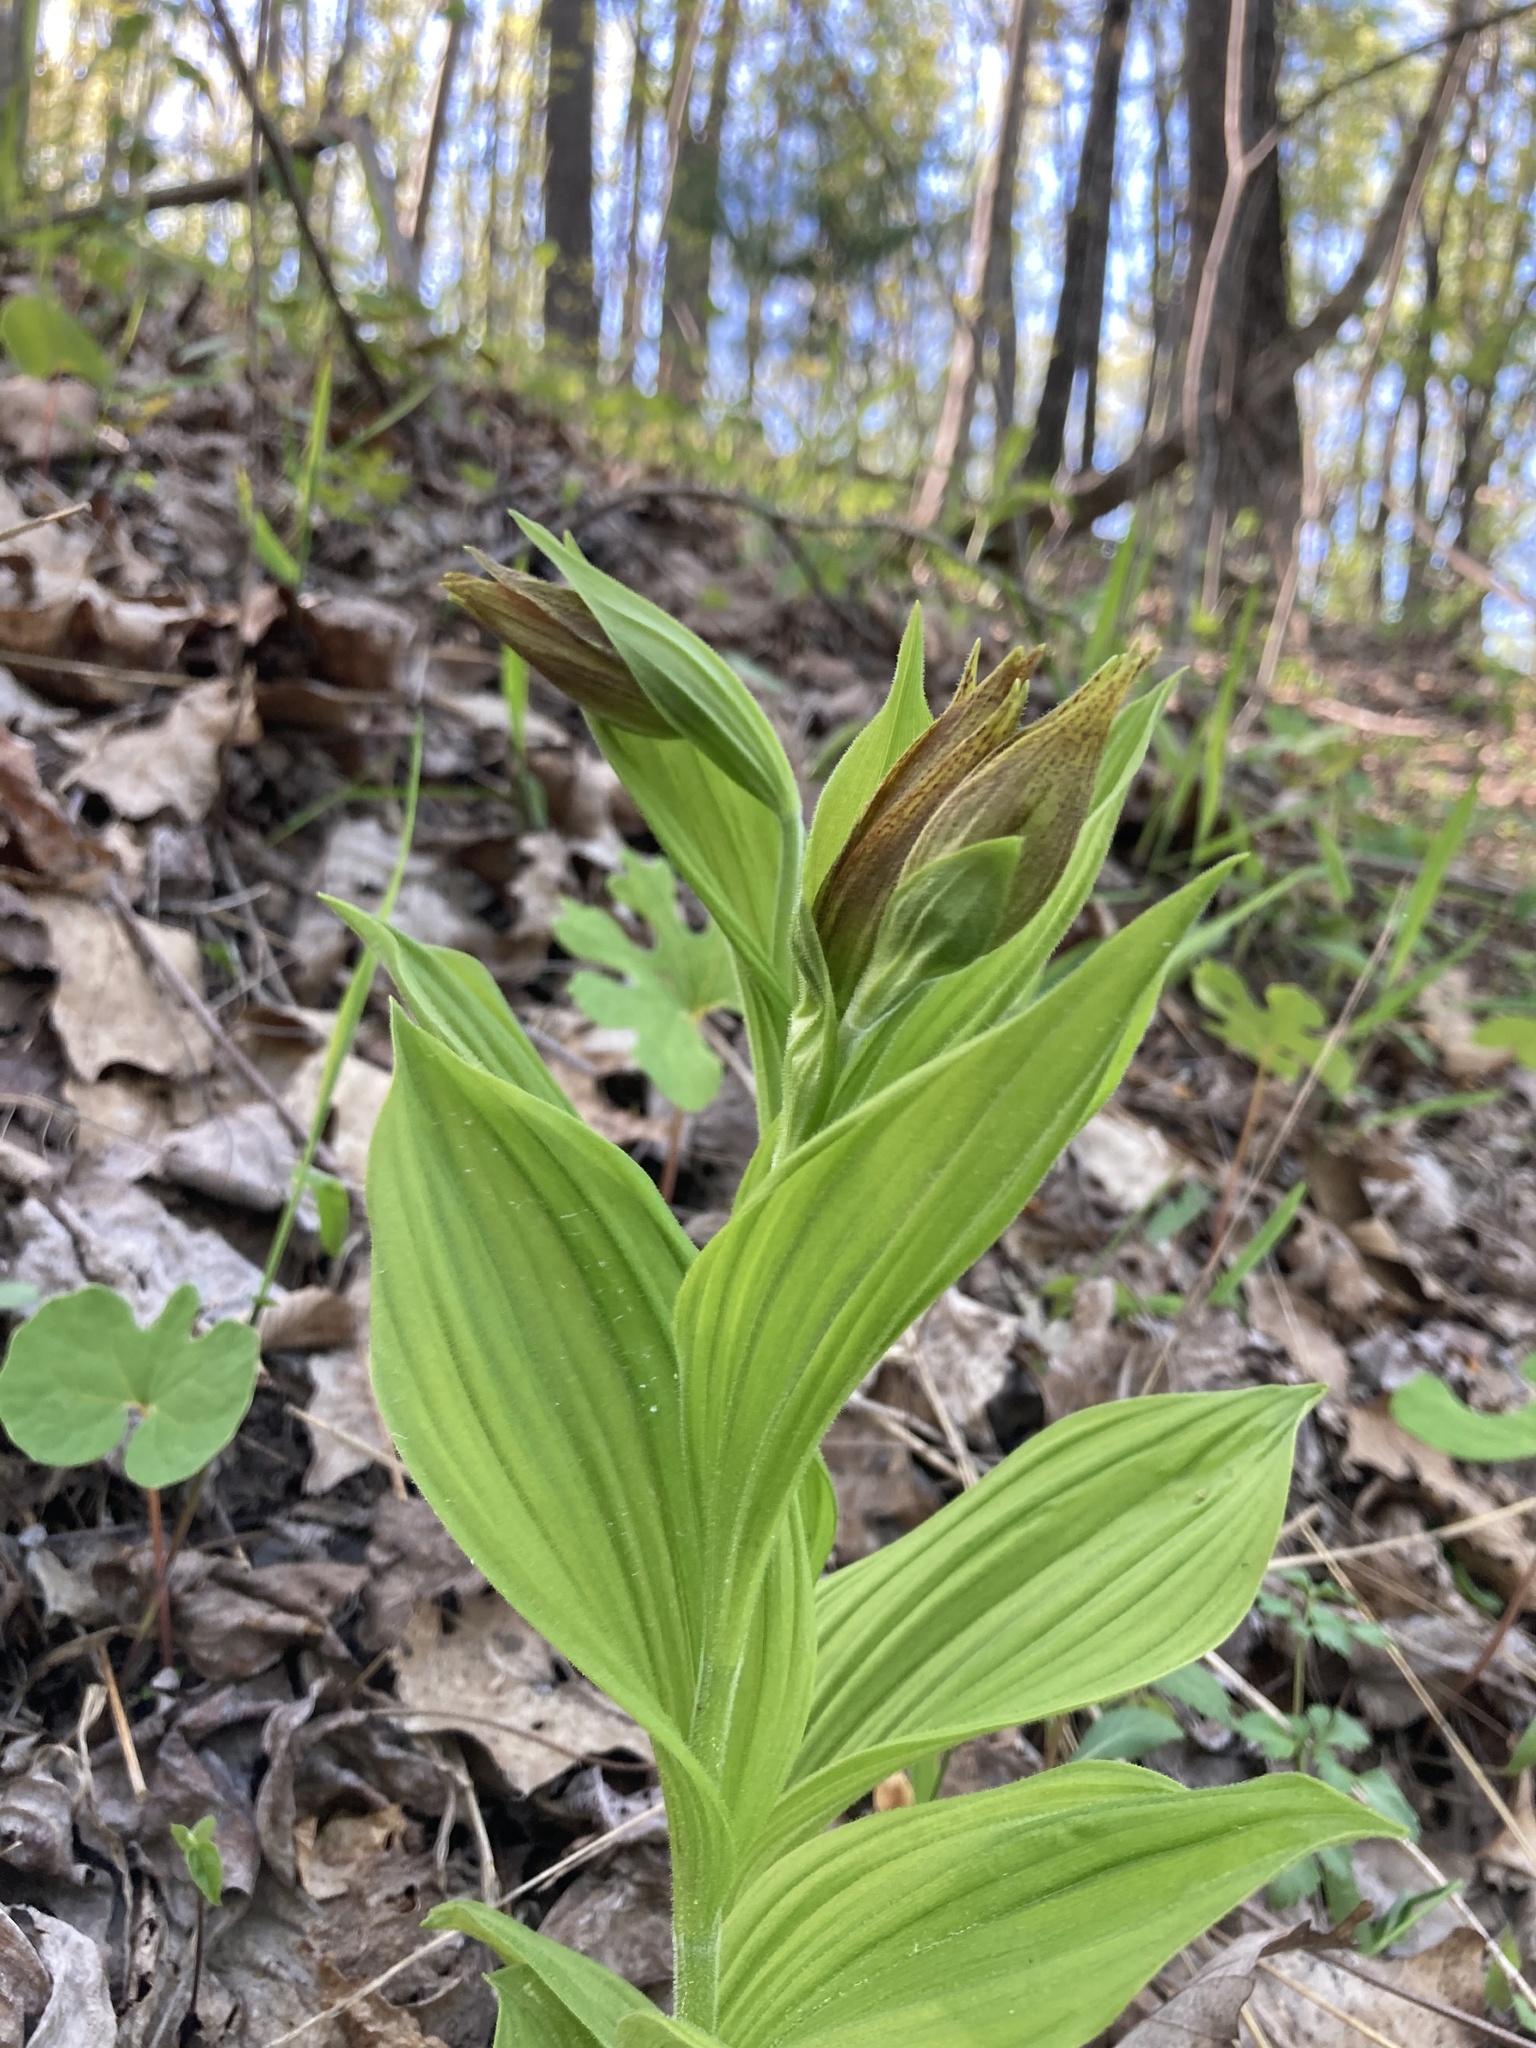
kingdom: Plantae
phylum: Tracheophyta
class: Liliopsida
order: Asparagales
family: Orchidaceae
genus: Cypripedium
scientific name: Cypripedium parviflorum
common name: American yellow lady's-slipper
